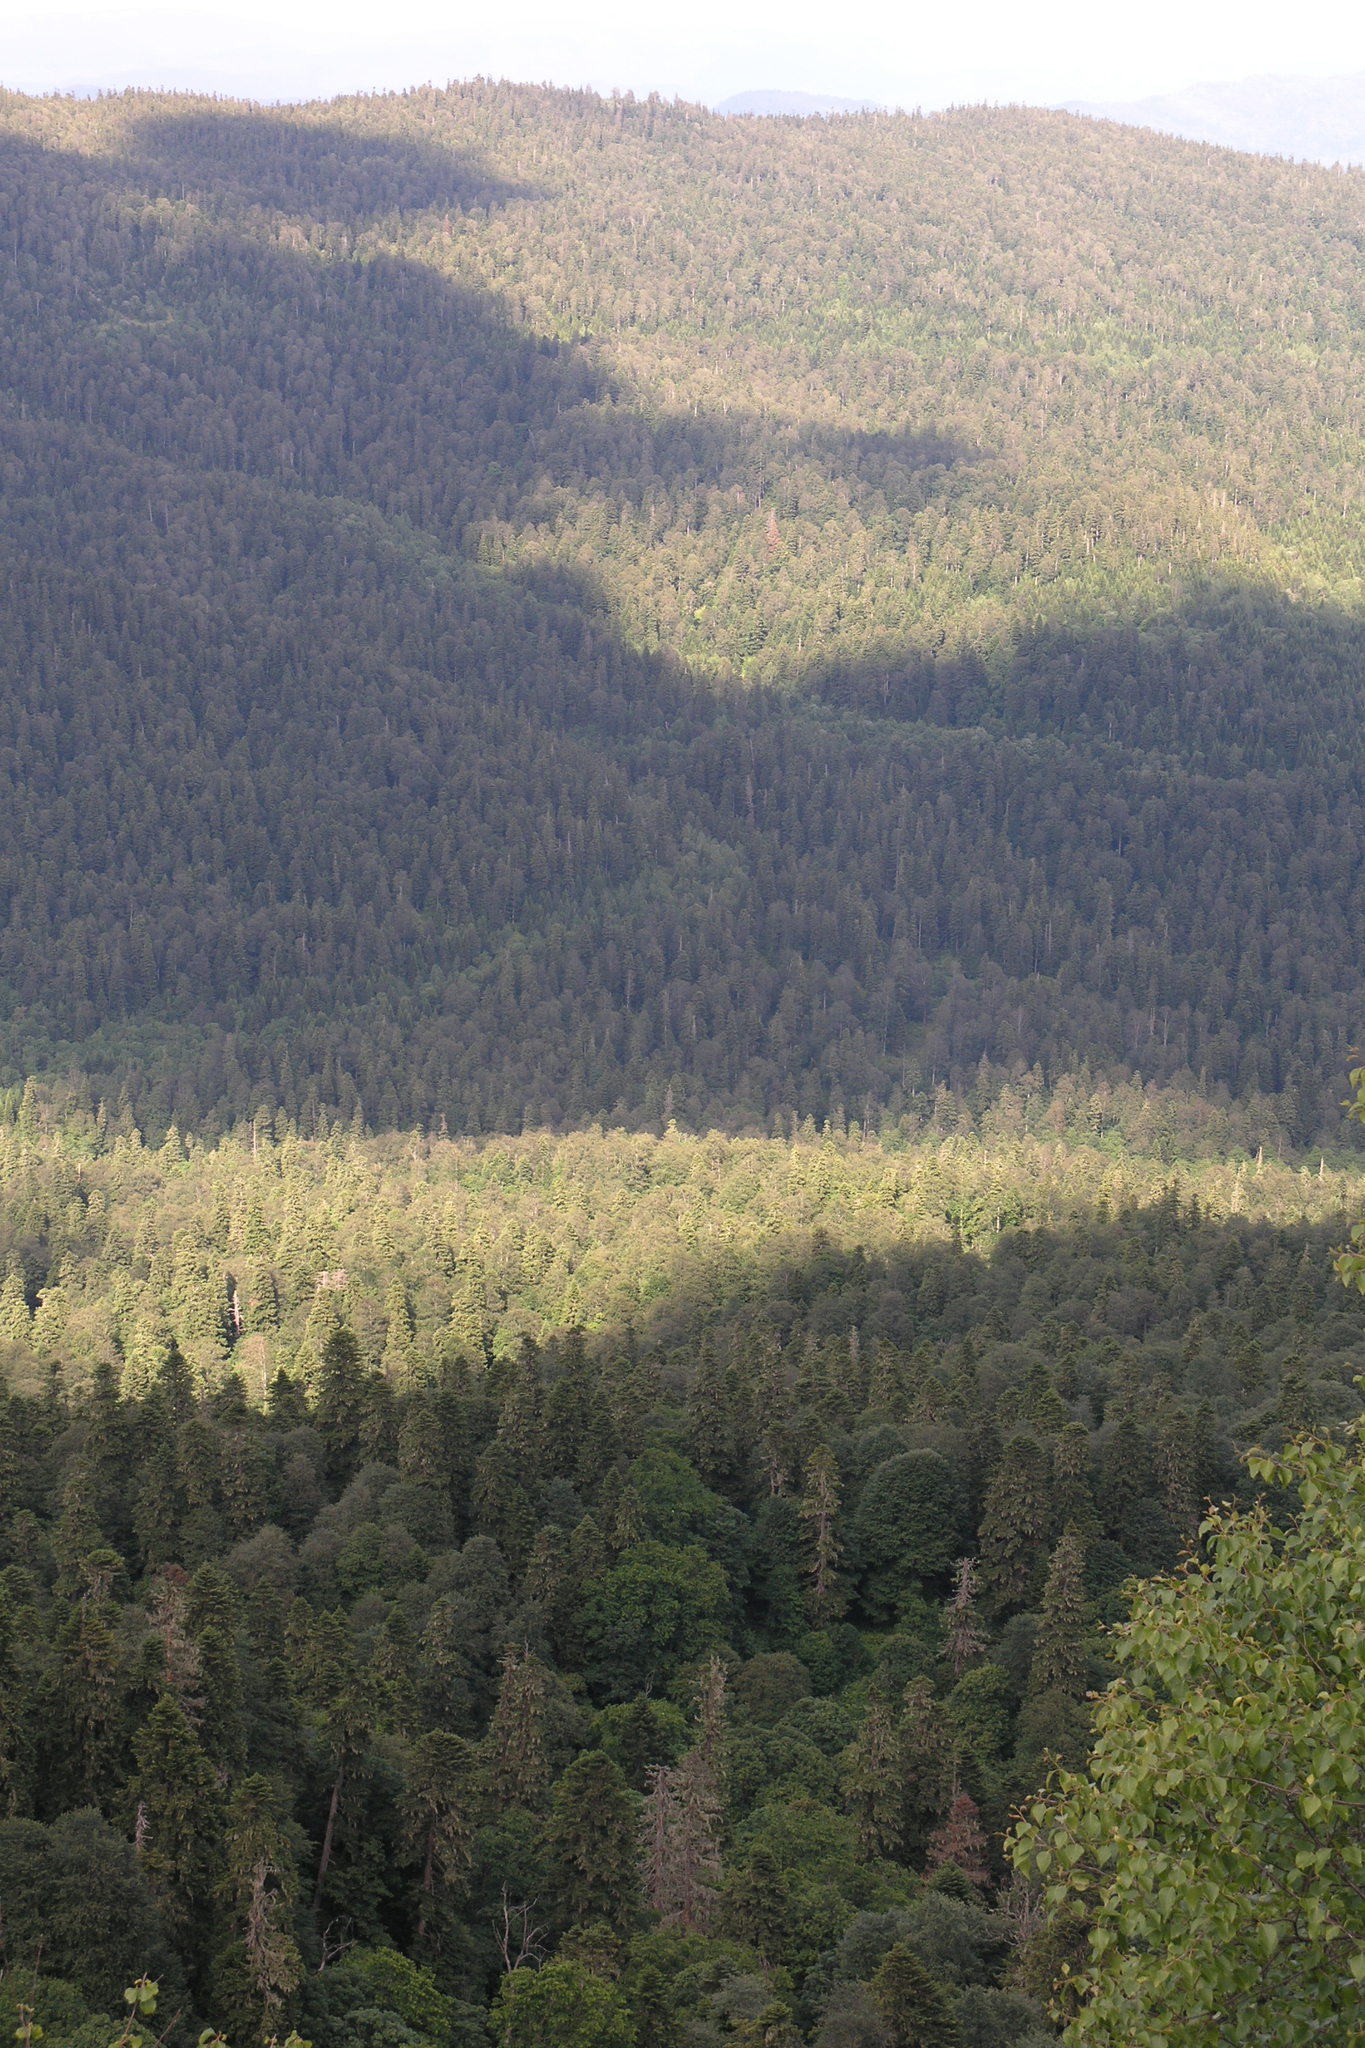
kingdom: Plantae
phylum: Tracheophyta
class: Pinopsida
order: Pinales
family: Pinaceae
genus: Abies
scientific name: Abies nordmanniana
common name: Caucasian fir
